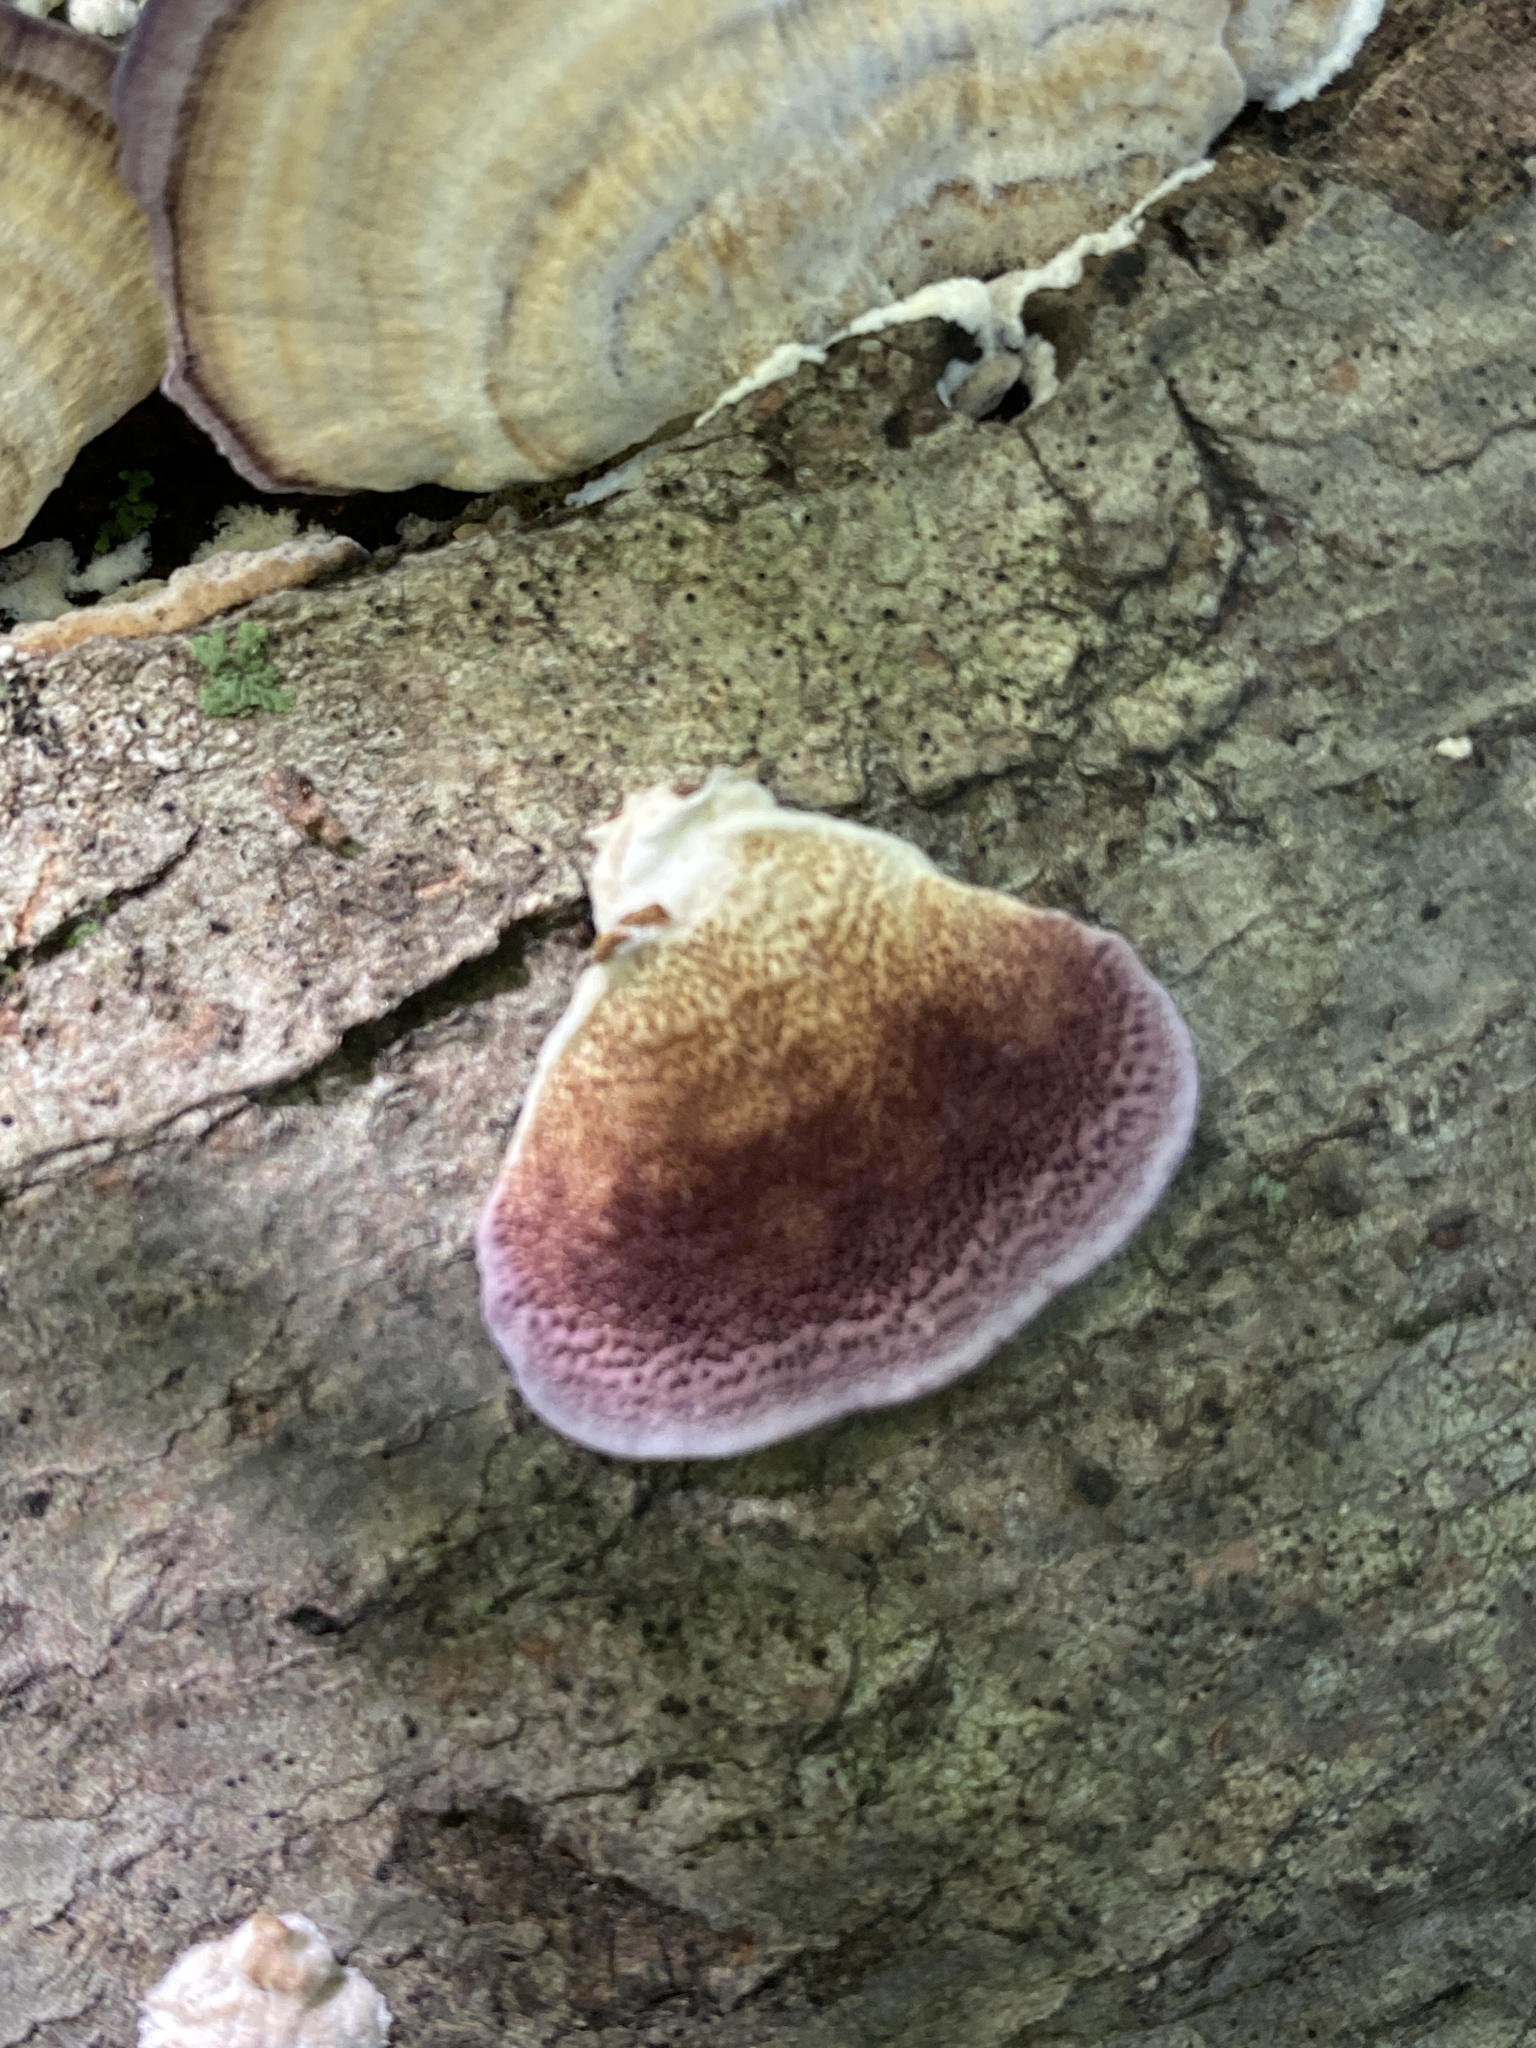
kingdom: Fungi
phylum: Basidiomycota
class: Agaricomycetes
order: Hymenochaetales
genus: Trichaptum
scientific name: Trichaptum biforme
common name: Violet-toothed polypore
